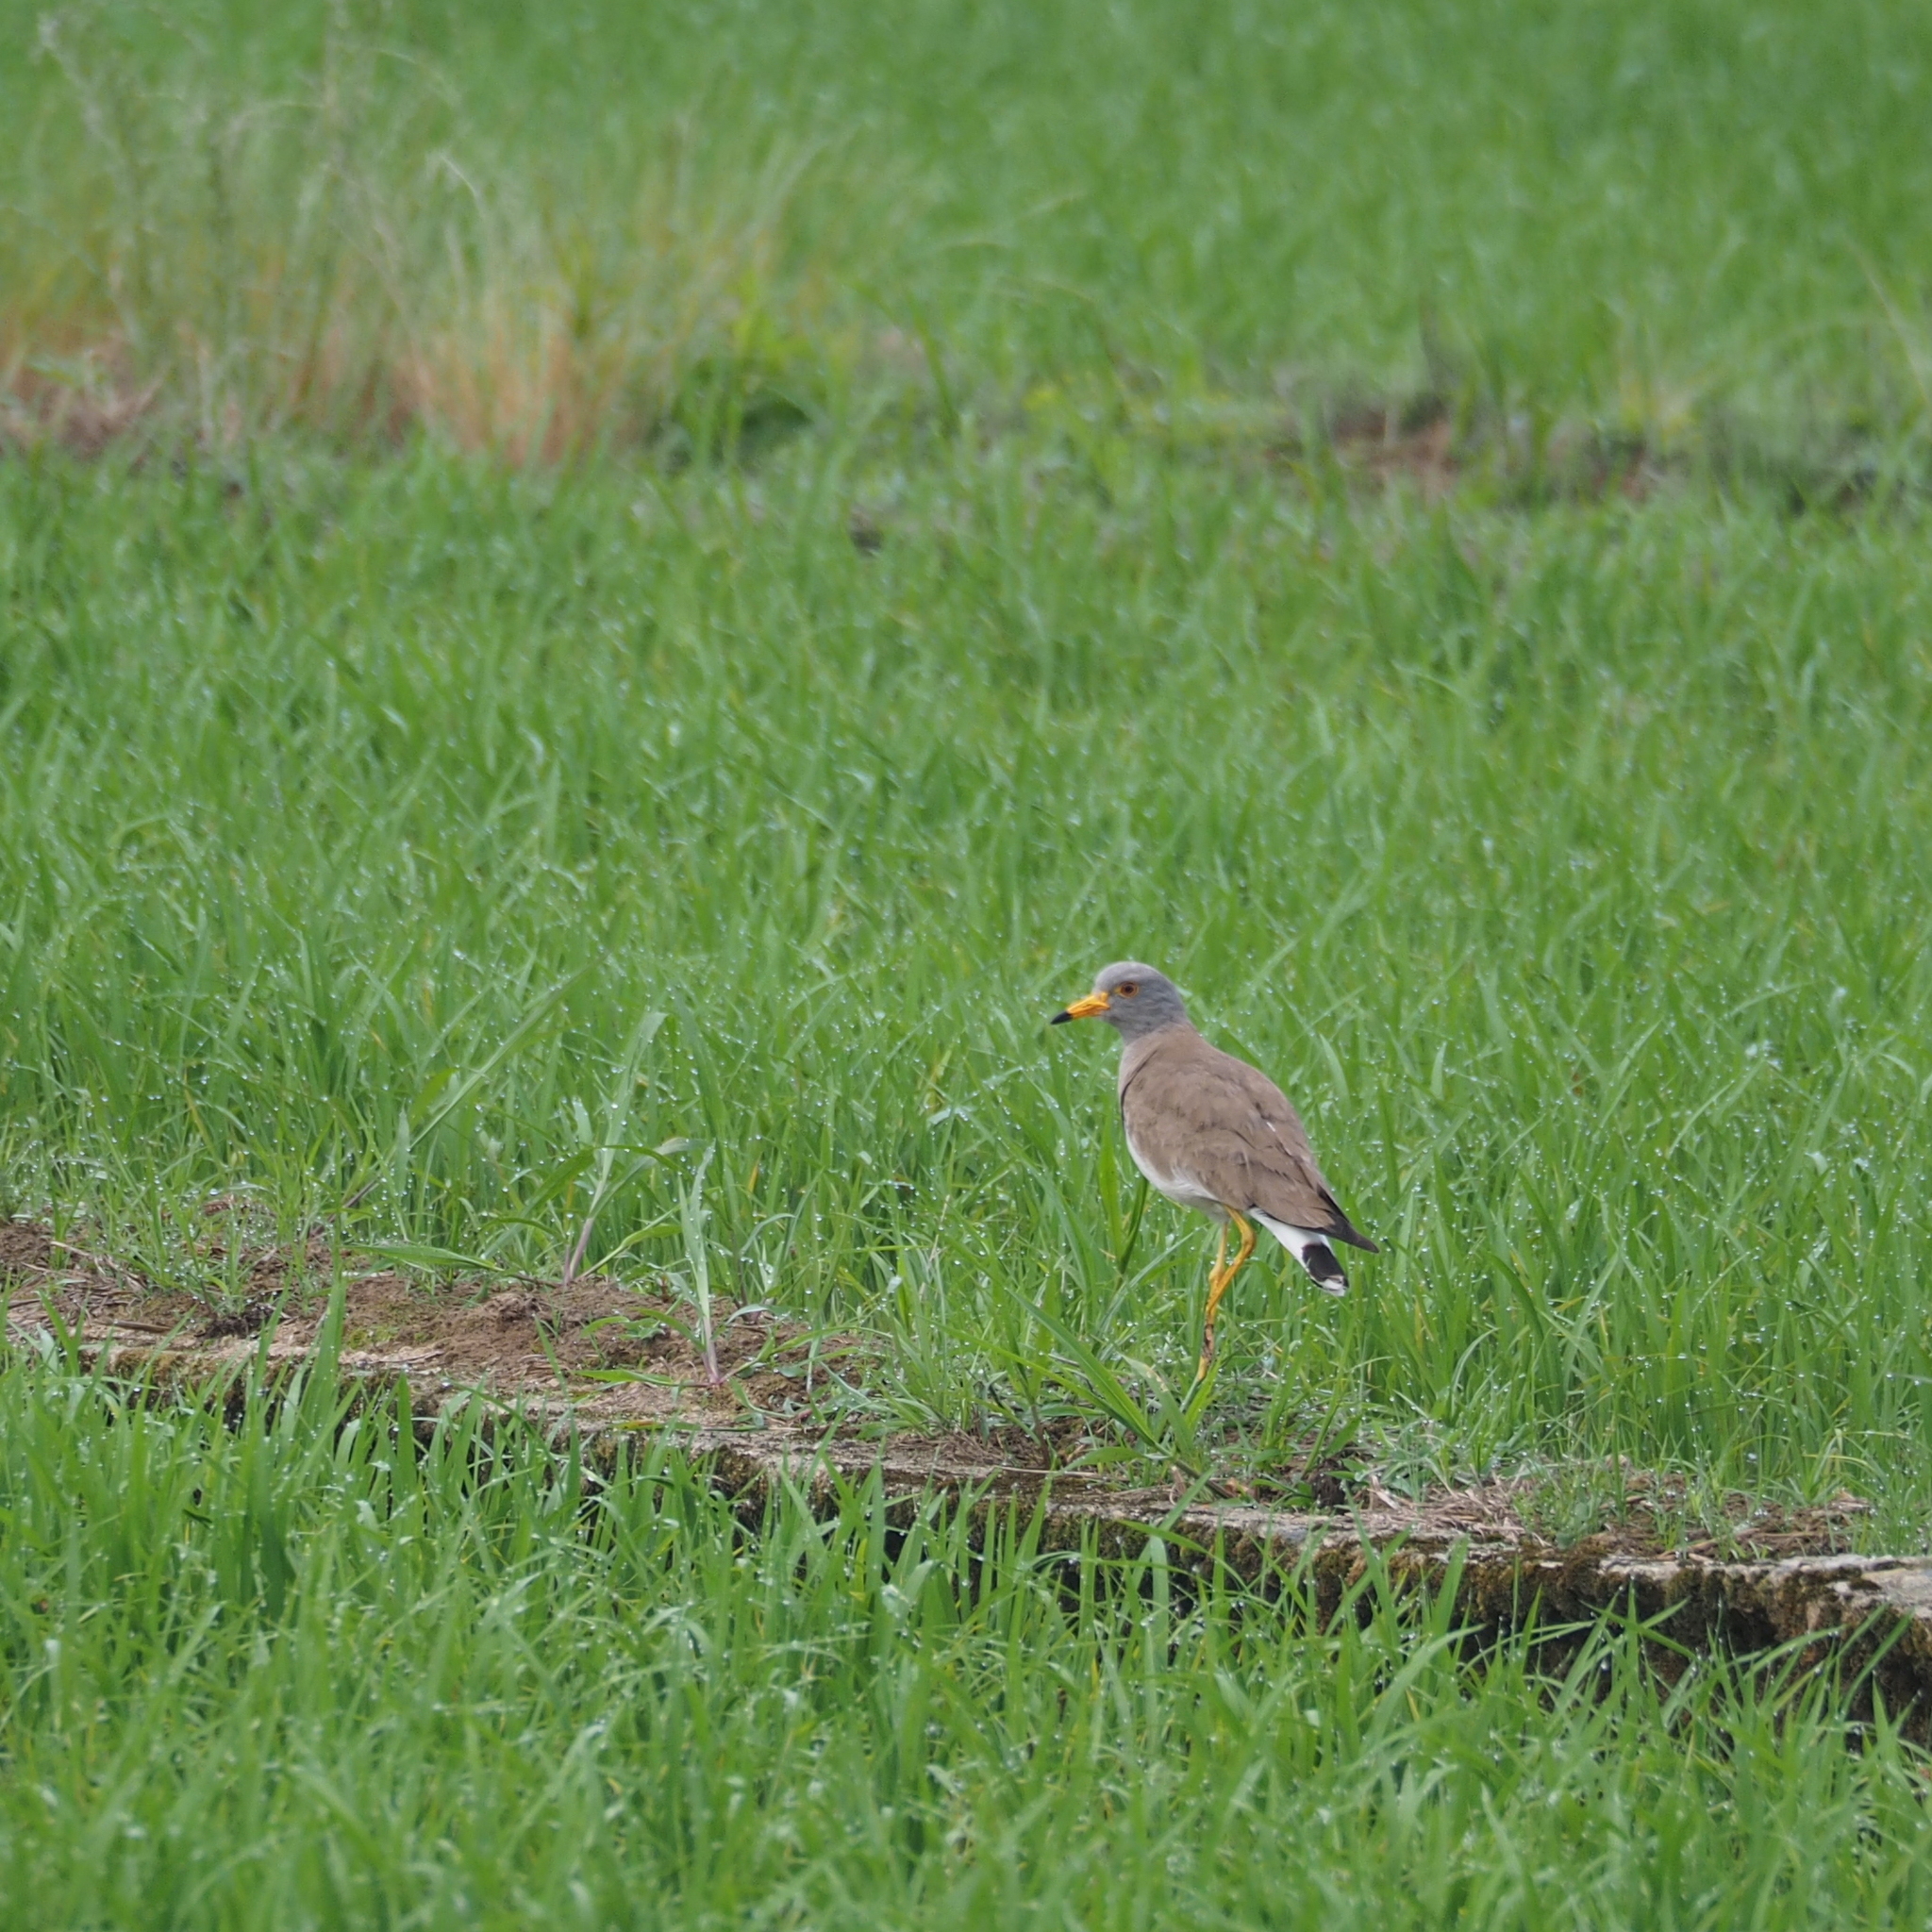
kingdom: Animalia
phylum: Chordata
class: Aves
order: Charadriiformes
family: Charadriidae
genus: Vanellus
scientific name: Vanellus cinereus
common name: Grey-headed lapwing
